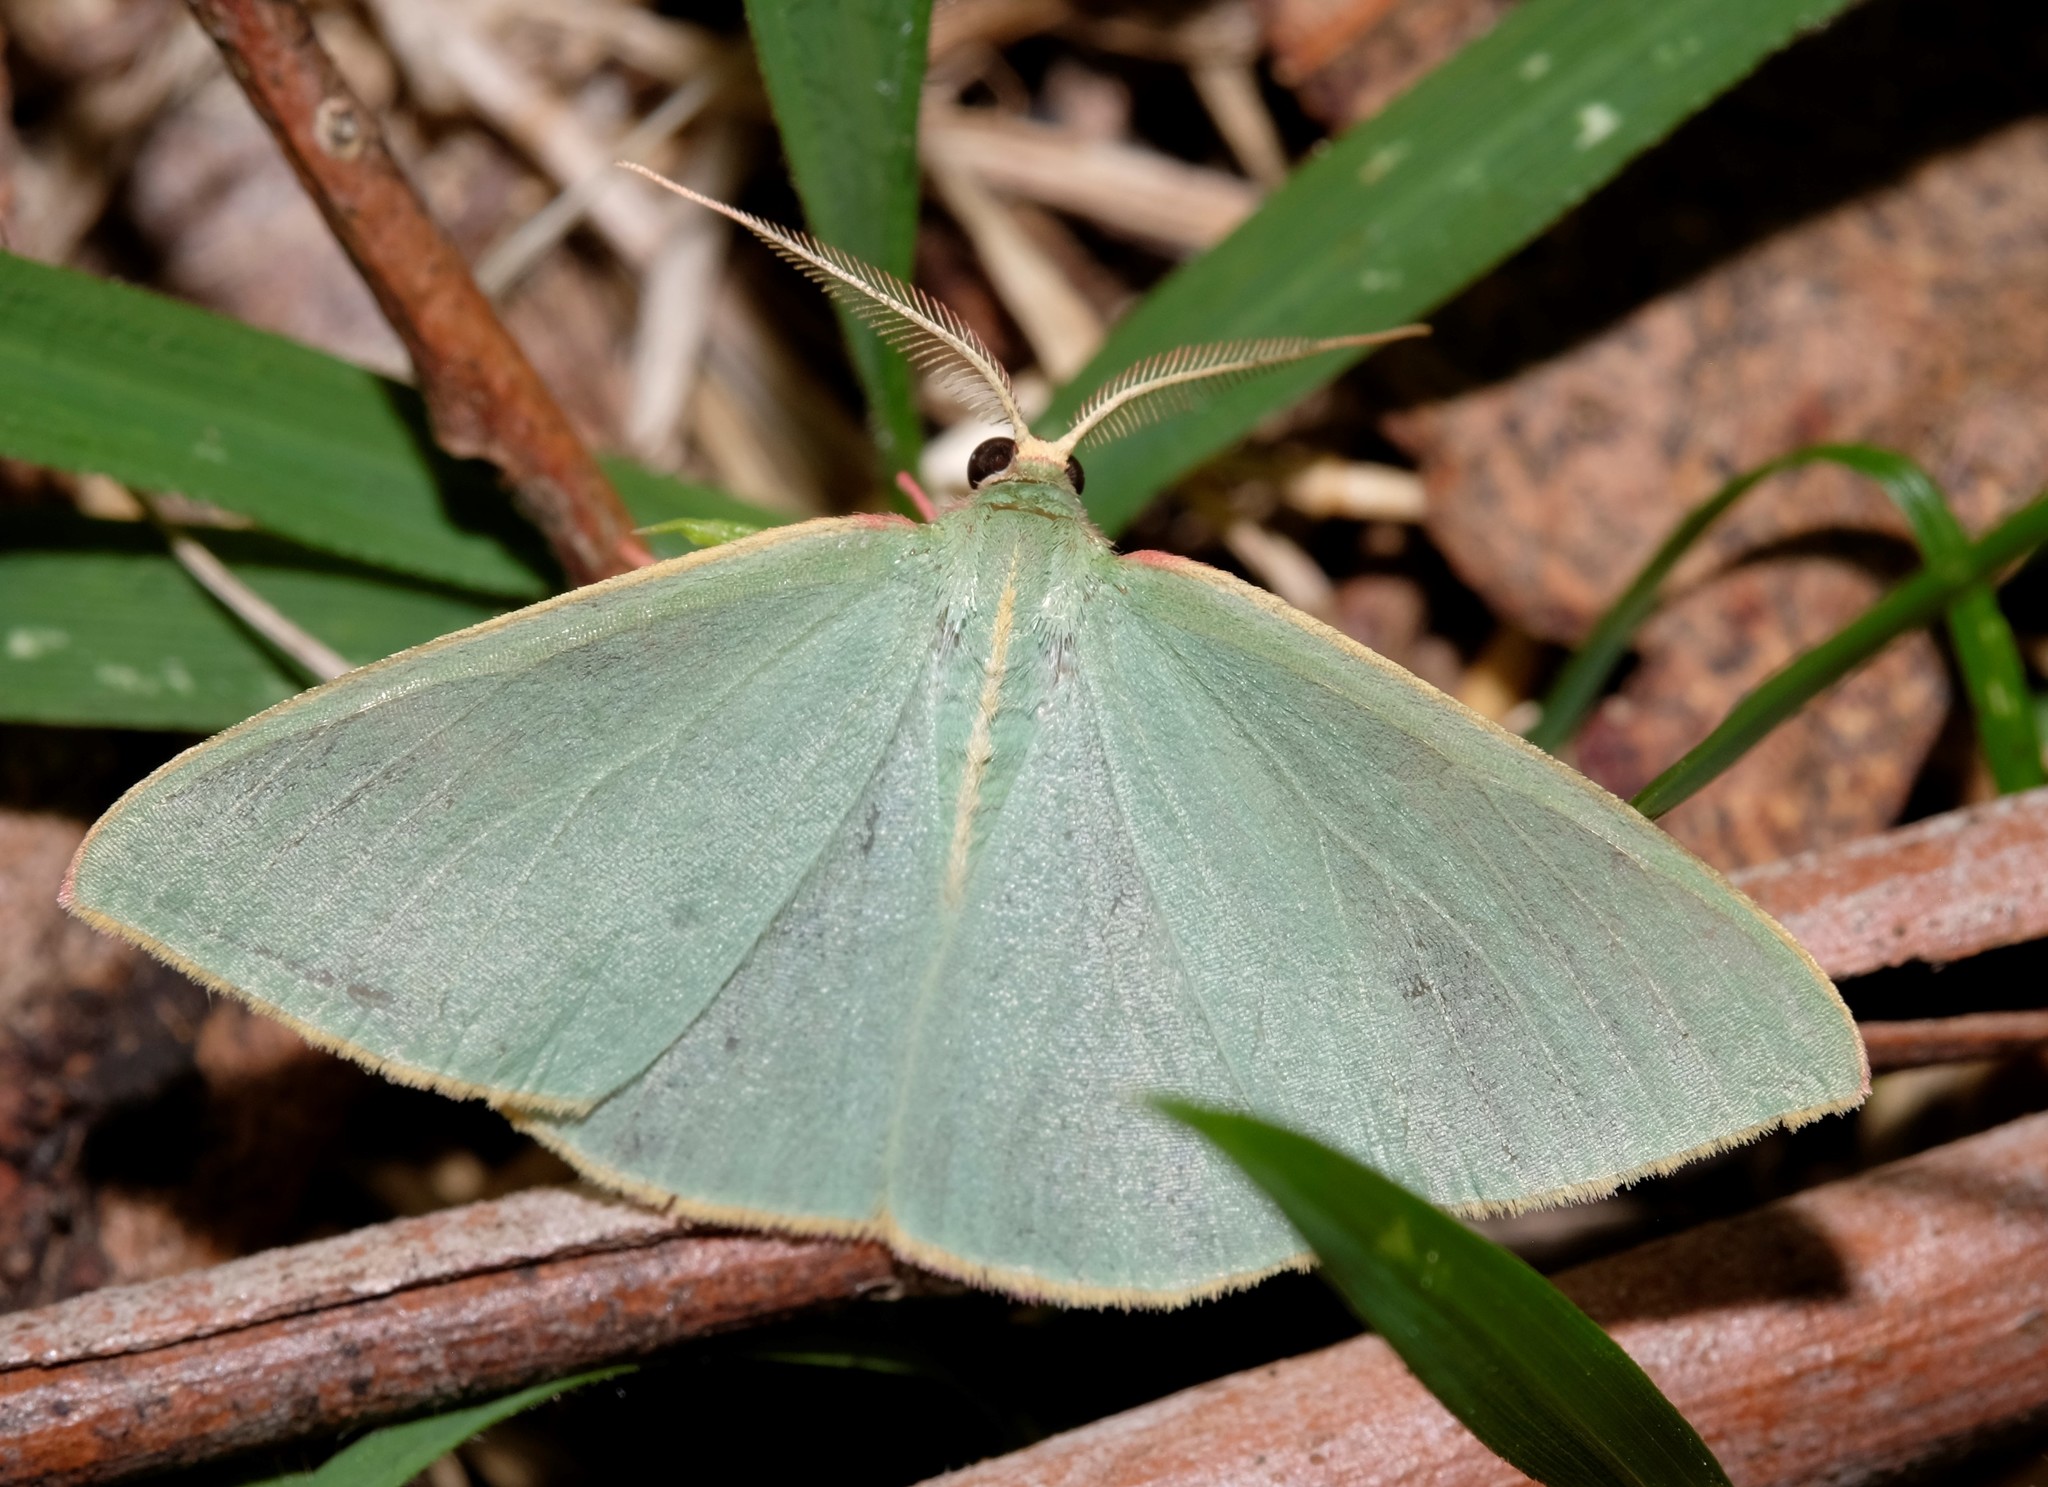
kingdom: Animalia
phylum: Arthropoda
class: Insecta
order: Lepidoptera
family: Geometridae
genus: Chlorocoma
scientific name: Chlorocoma assimilis
